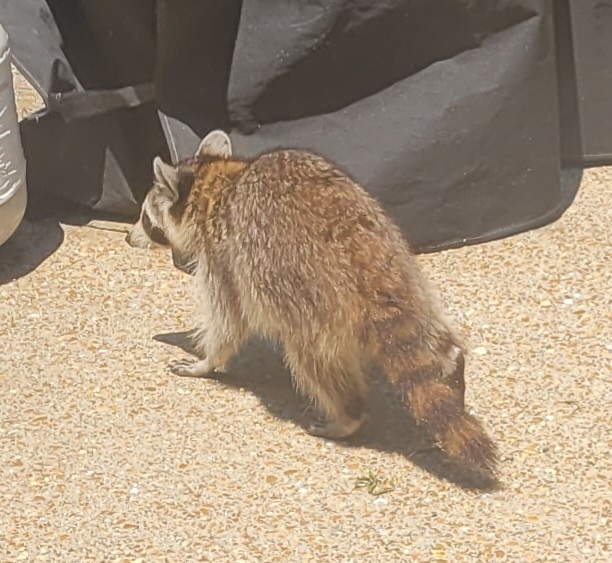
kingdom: Animalia
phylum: Chordata
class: Mammalia
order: Carnivora
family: Procyonidae
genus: Procyon
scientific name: Procyon lotor
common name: Raccoon
